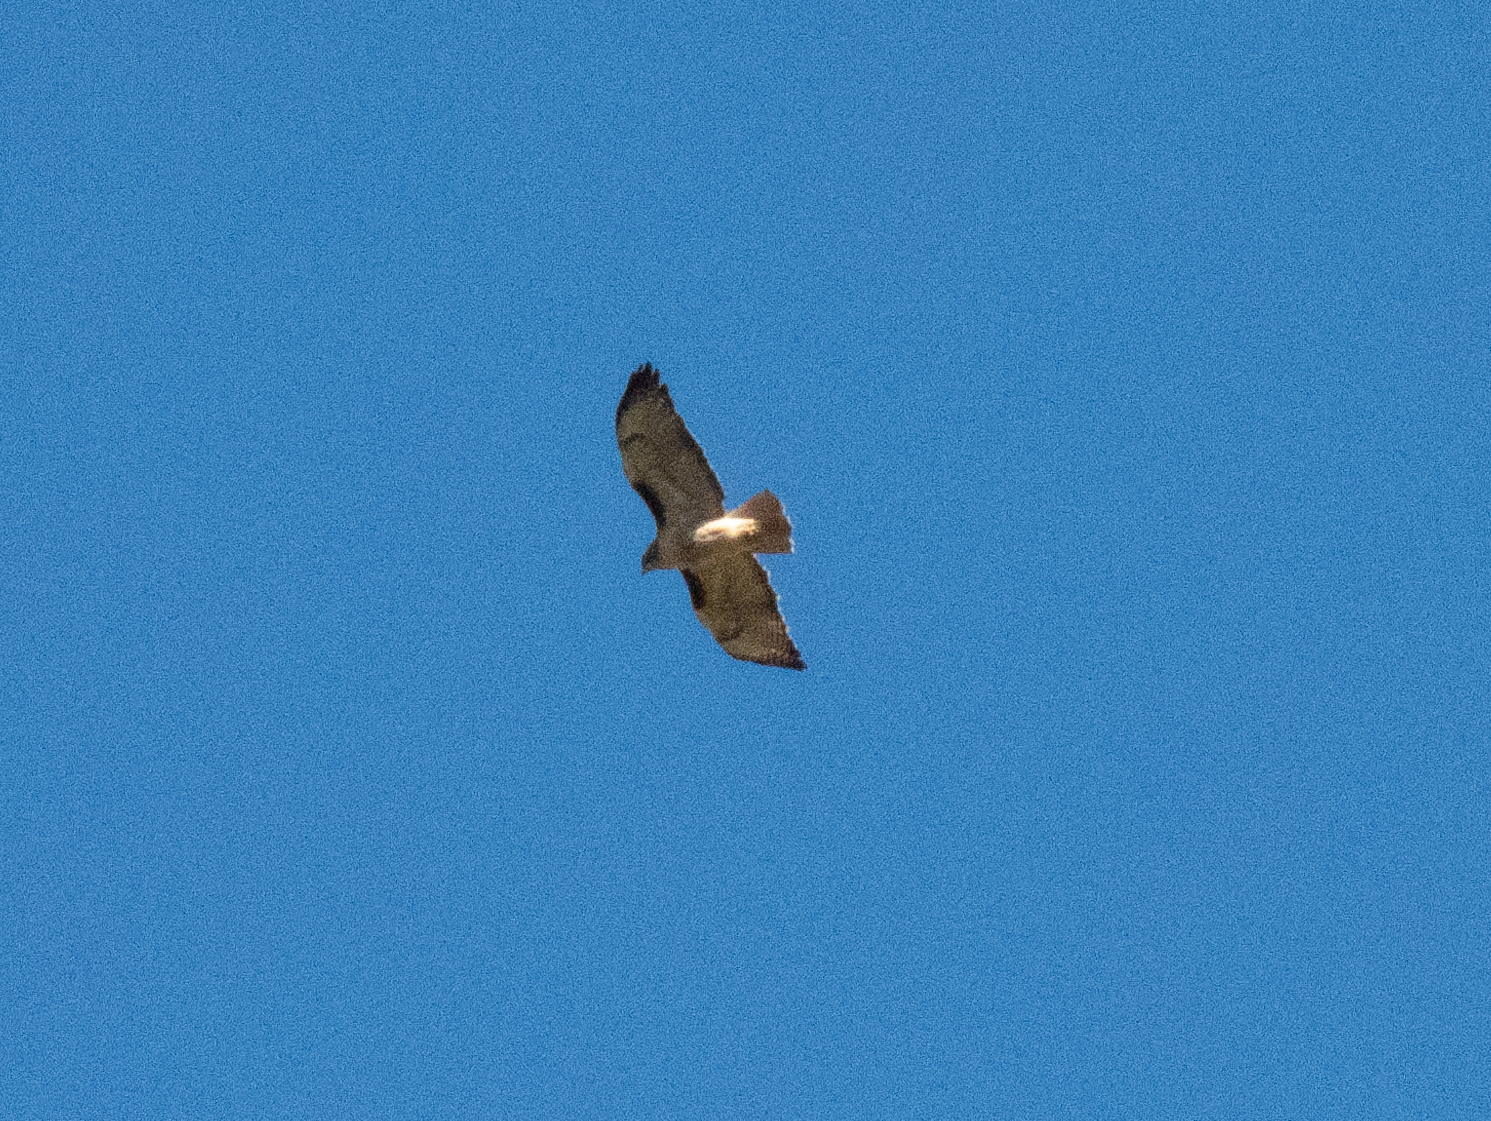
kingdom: Animalia
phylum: Chordata
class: Aves
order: Accipitriformes
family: Accipitridae
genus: Buteo
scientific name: Buteo jamaicensis
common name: Red-tailed hawk
